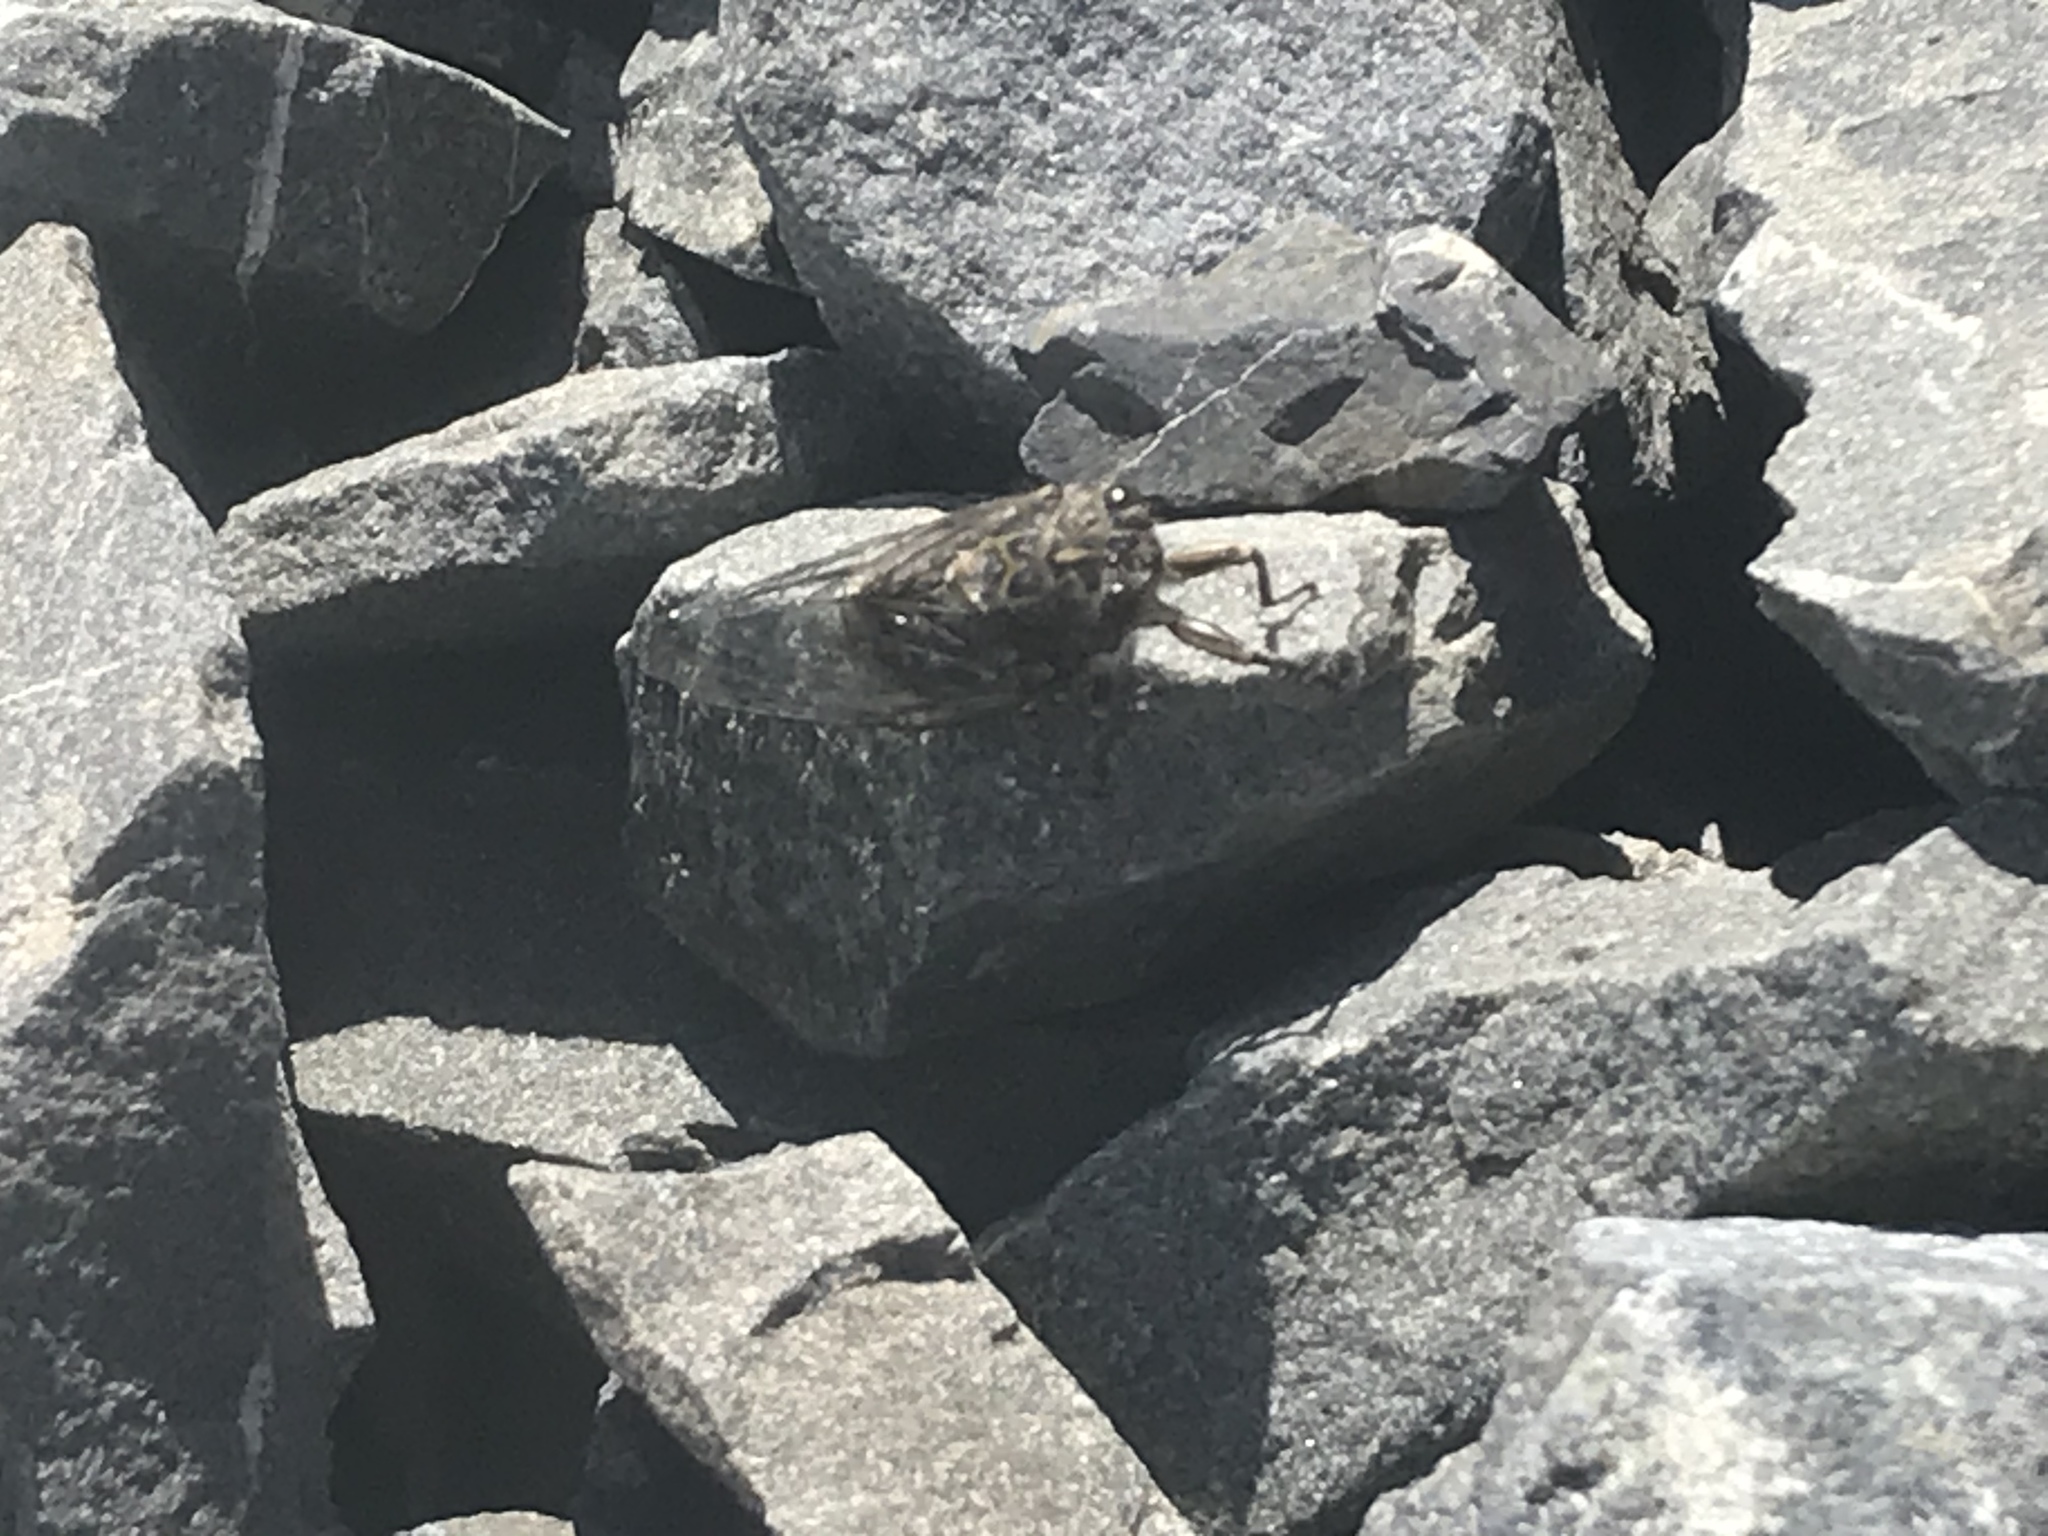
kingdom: Animalia
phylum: Arthropoda
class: Insecta
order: Hemiptera
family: Cicadidae
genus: Amphipsalta
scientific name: Amphipsalta strepitans
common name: Chirping cicada
